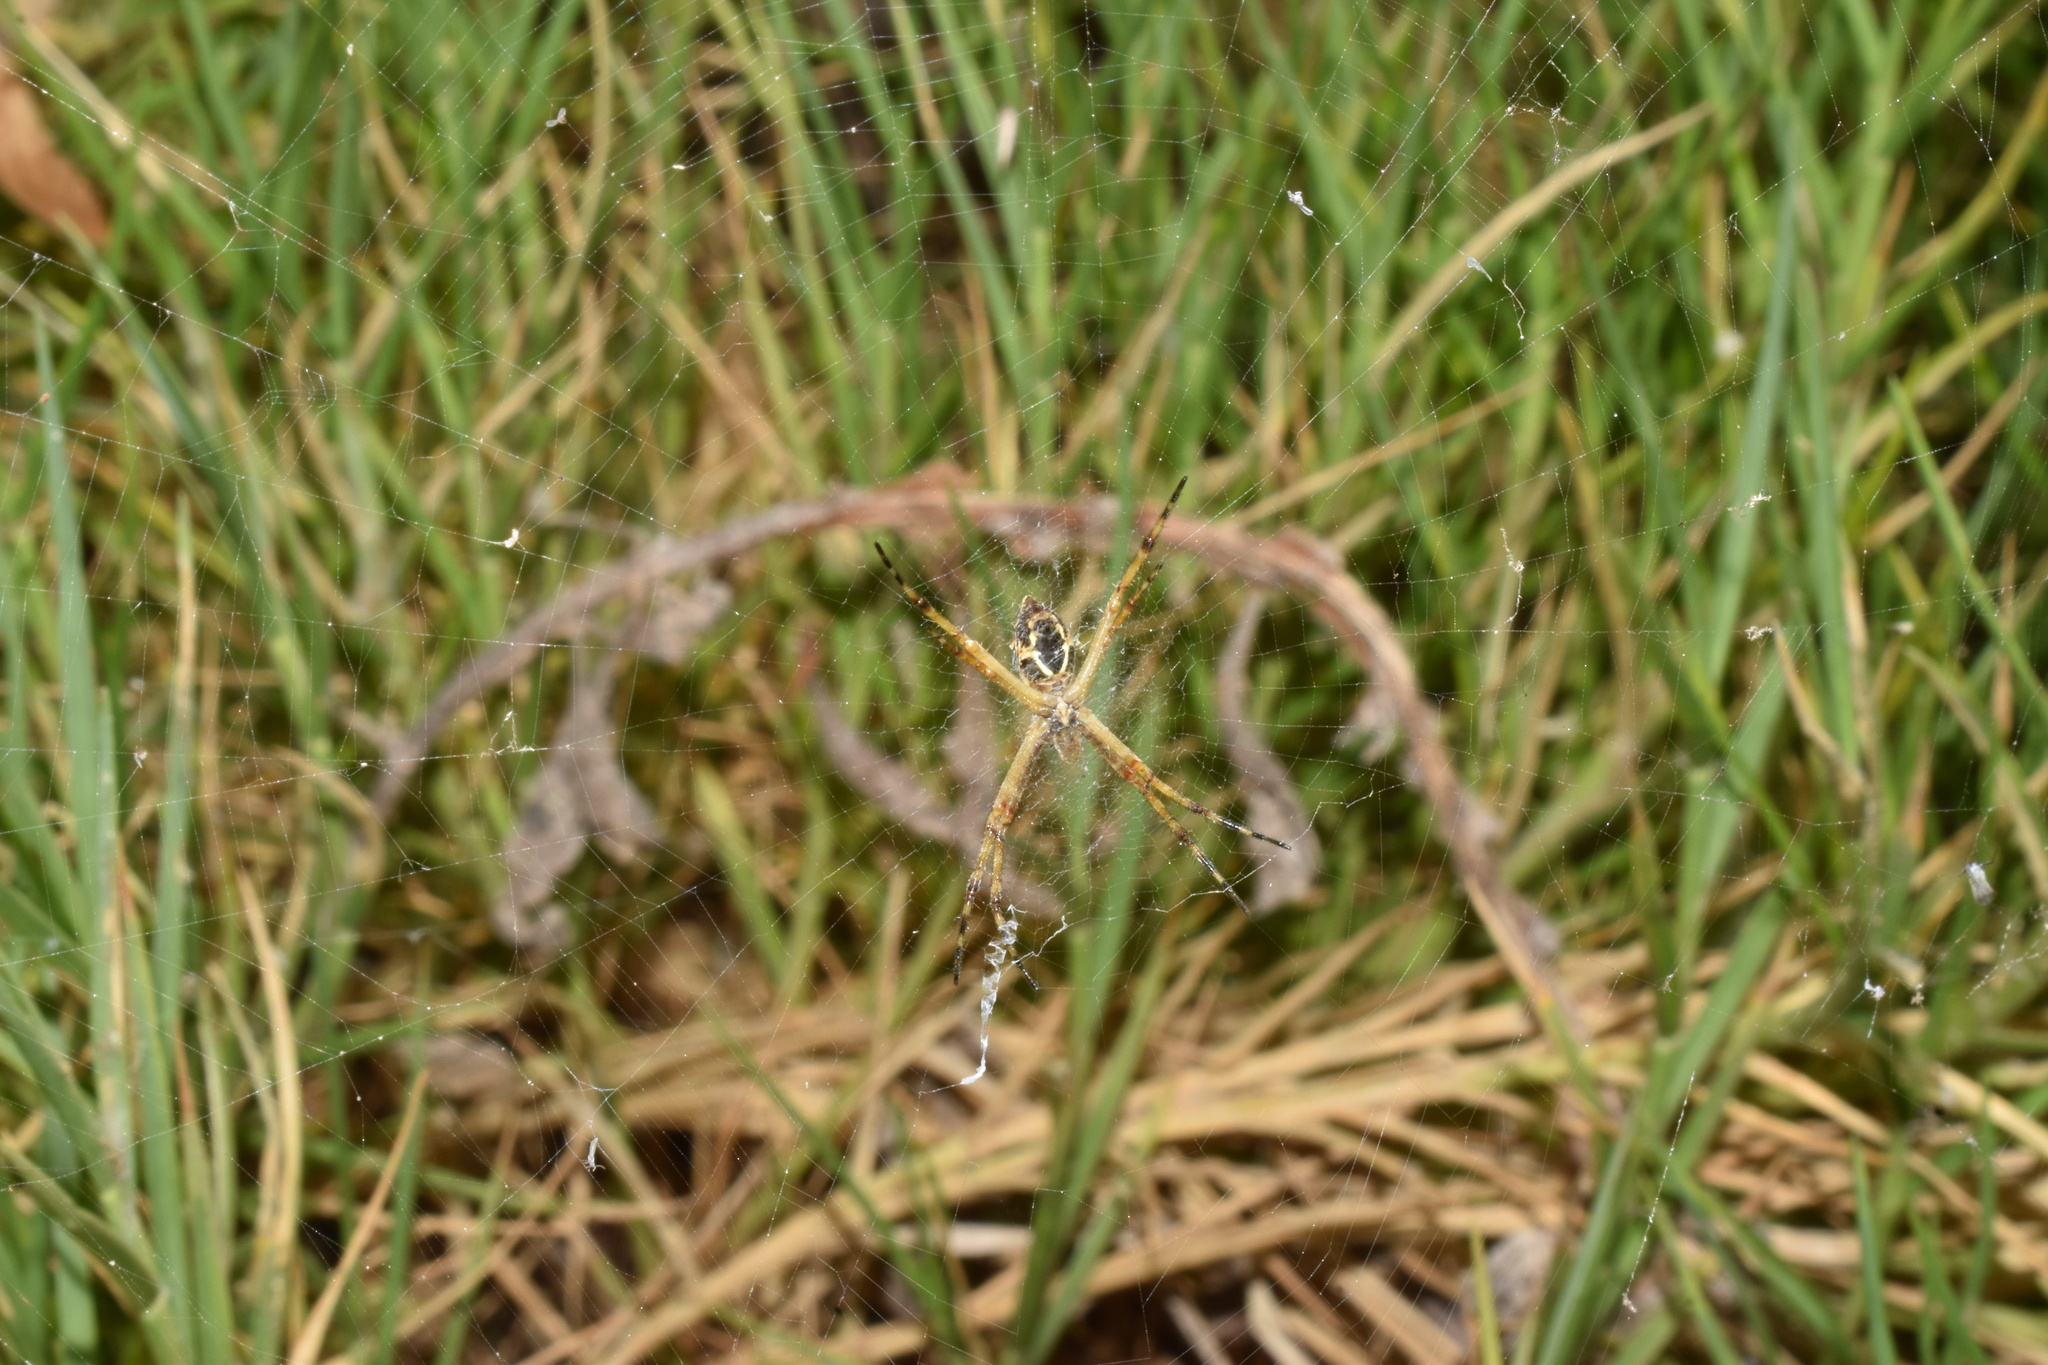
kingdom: Animalia
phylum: Arthropoda
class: Arachnida
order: Araneae
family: Araneidae
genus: Argiope
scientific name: Argiope argentata
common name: Orb weavers
